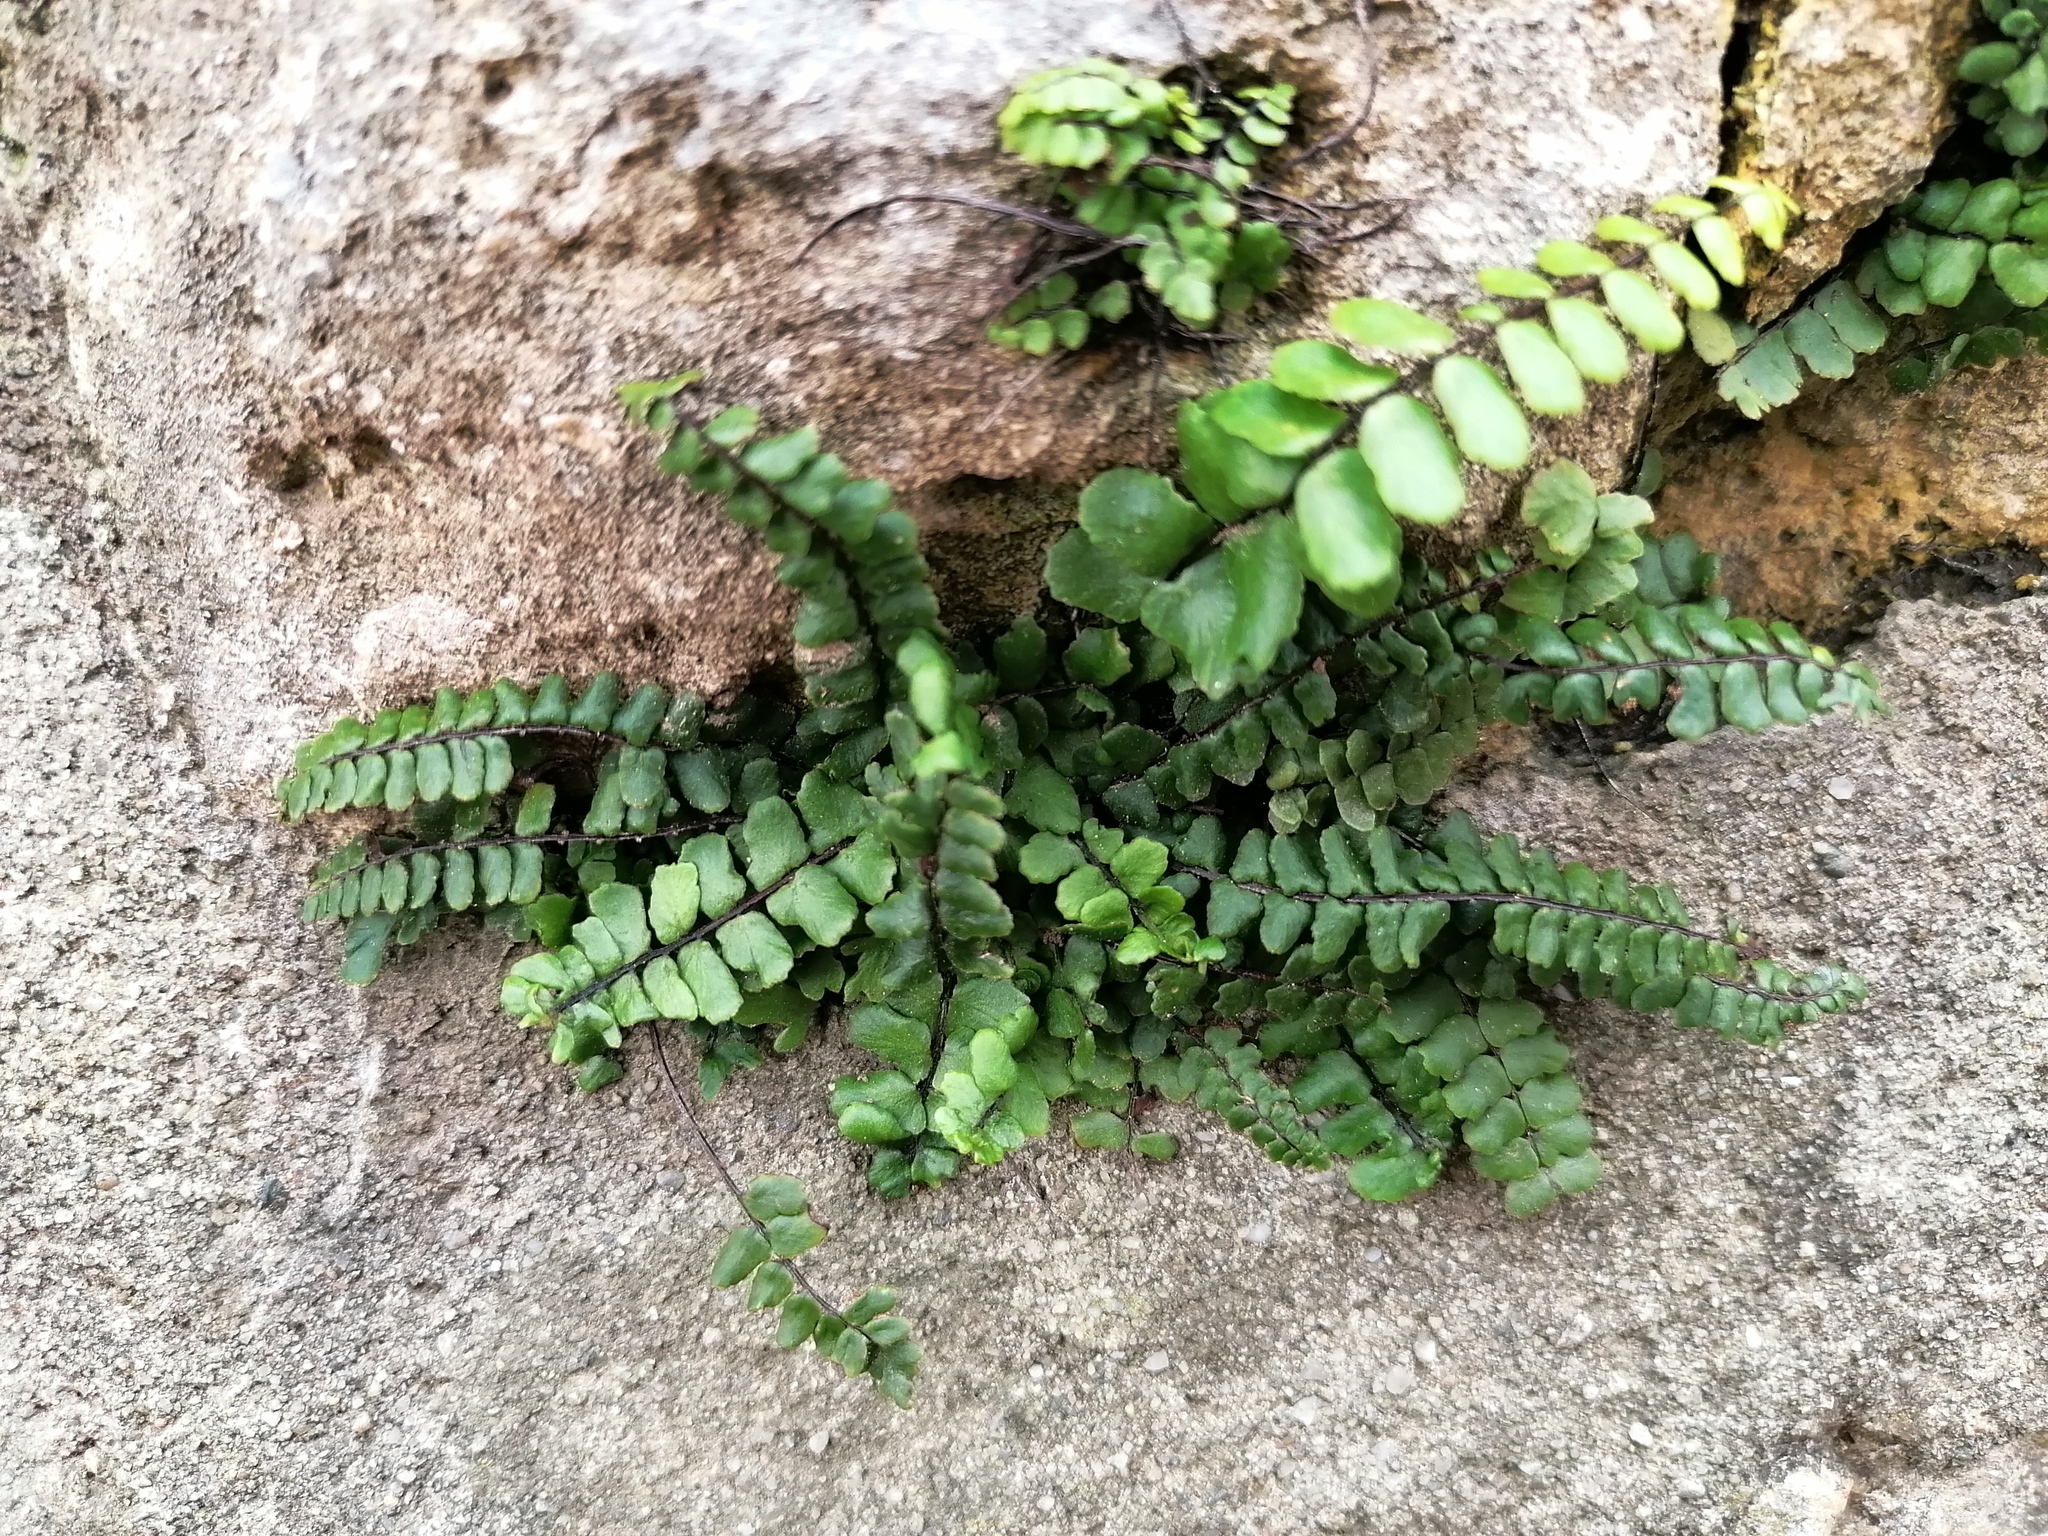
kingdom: Plantae
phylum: Tracheophyta
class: Polypodiopsida
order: Polypodiales
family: Aspleniaceae
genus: Asplenium
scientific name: Asplenium trichomanes
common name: Maidenhair spleenwort
